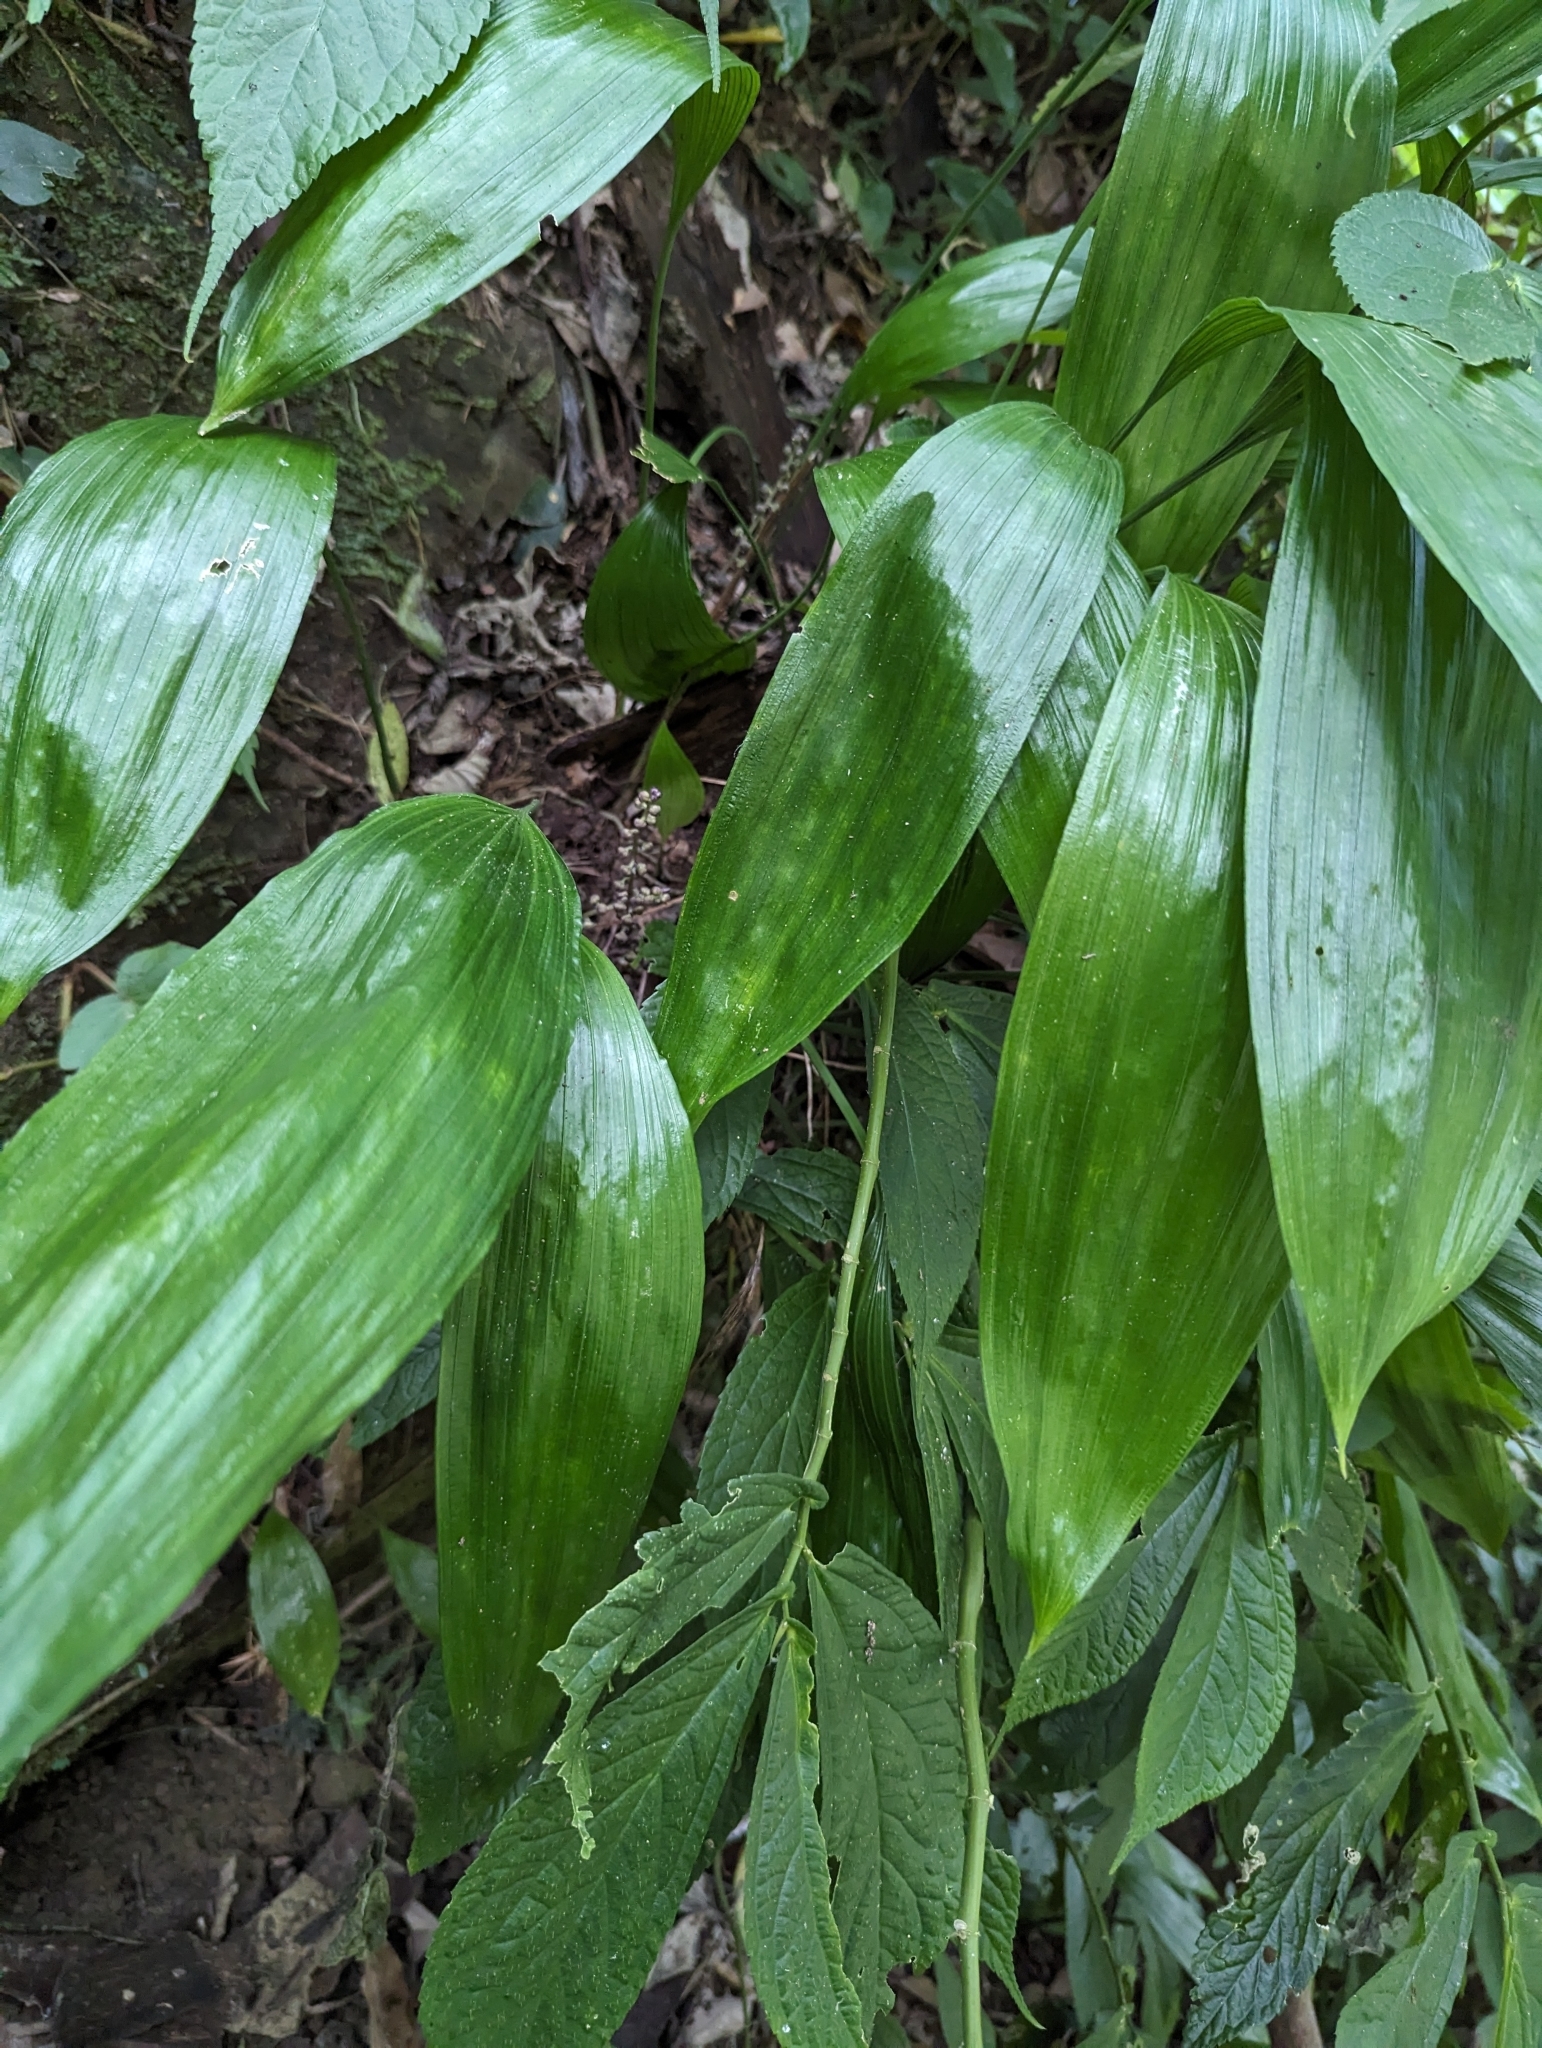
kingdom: Plantae
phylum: Tracheophyta
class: Liliopsida
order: Asparagales
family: Asparagaceae
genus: Peliosanthes
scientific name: Peliosanthes macrostegia
